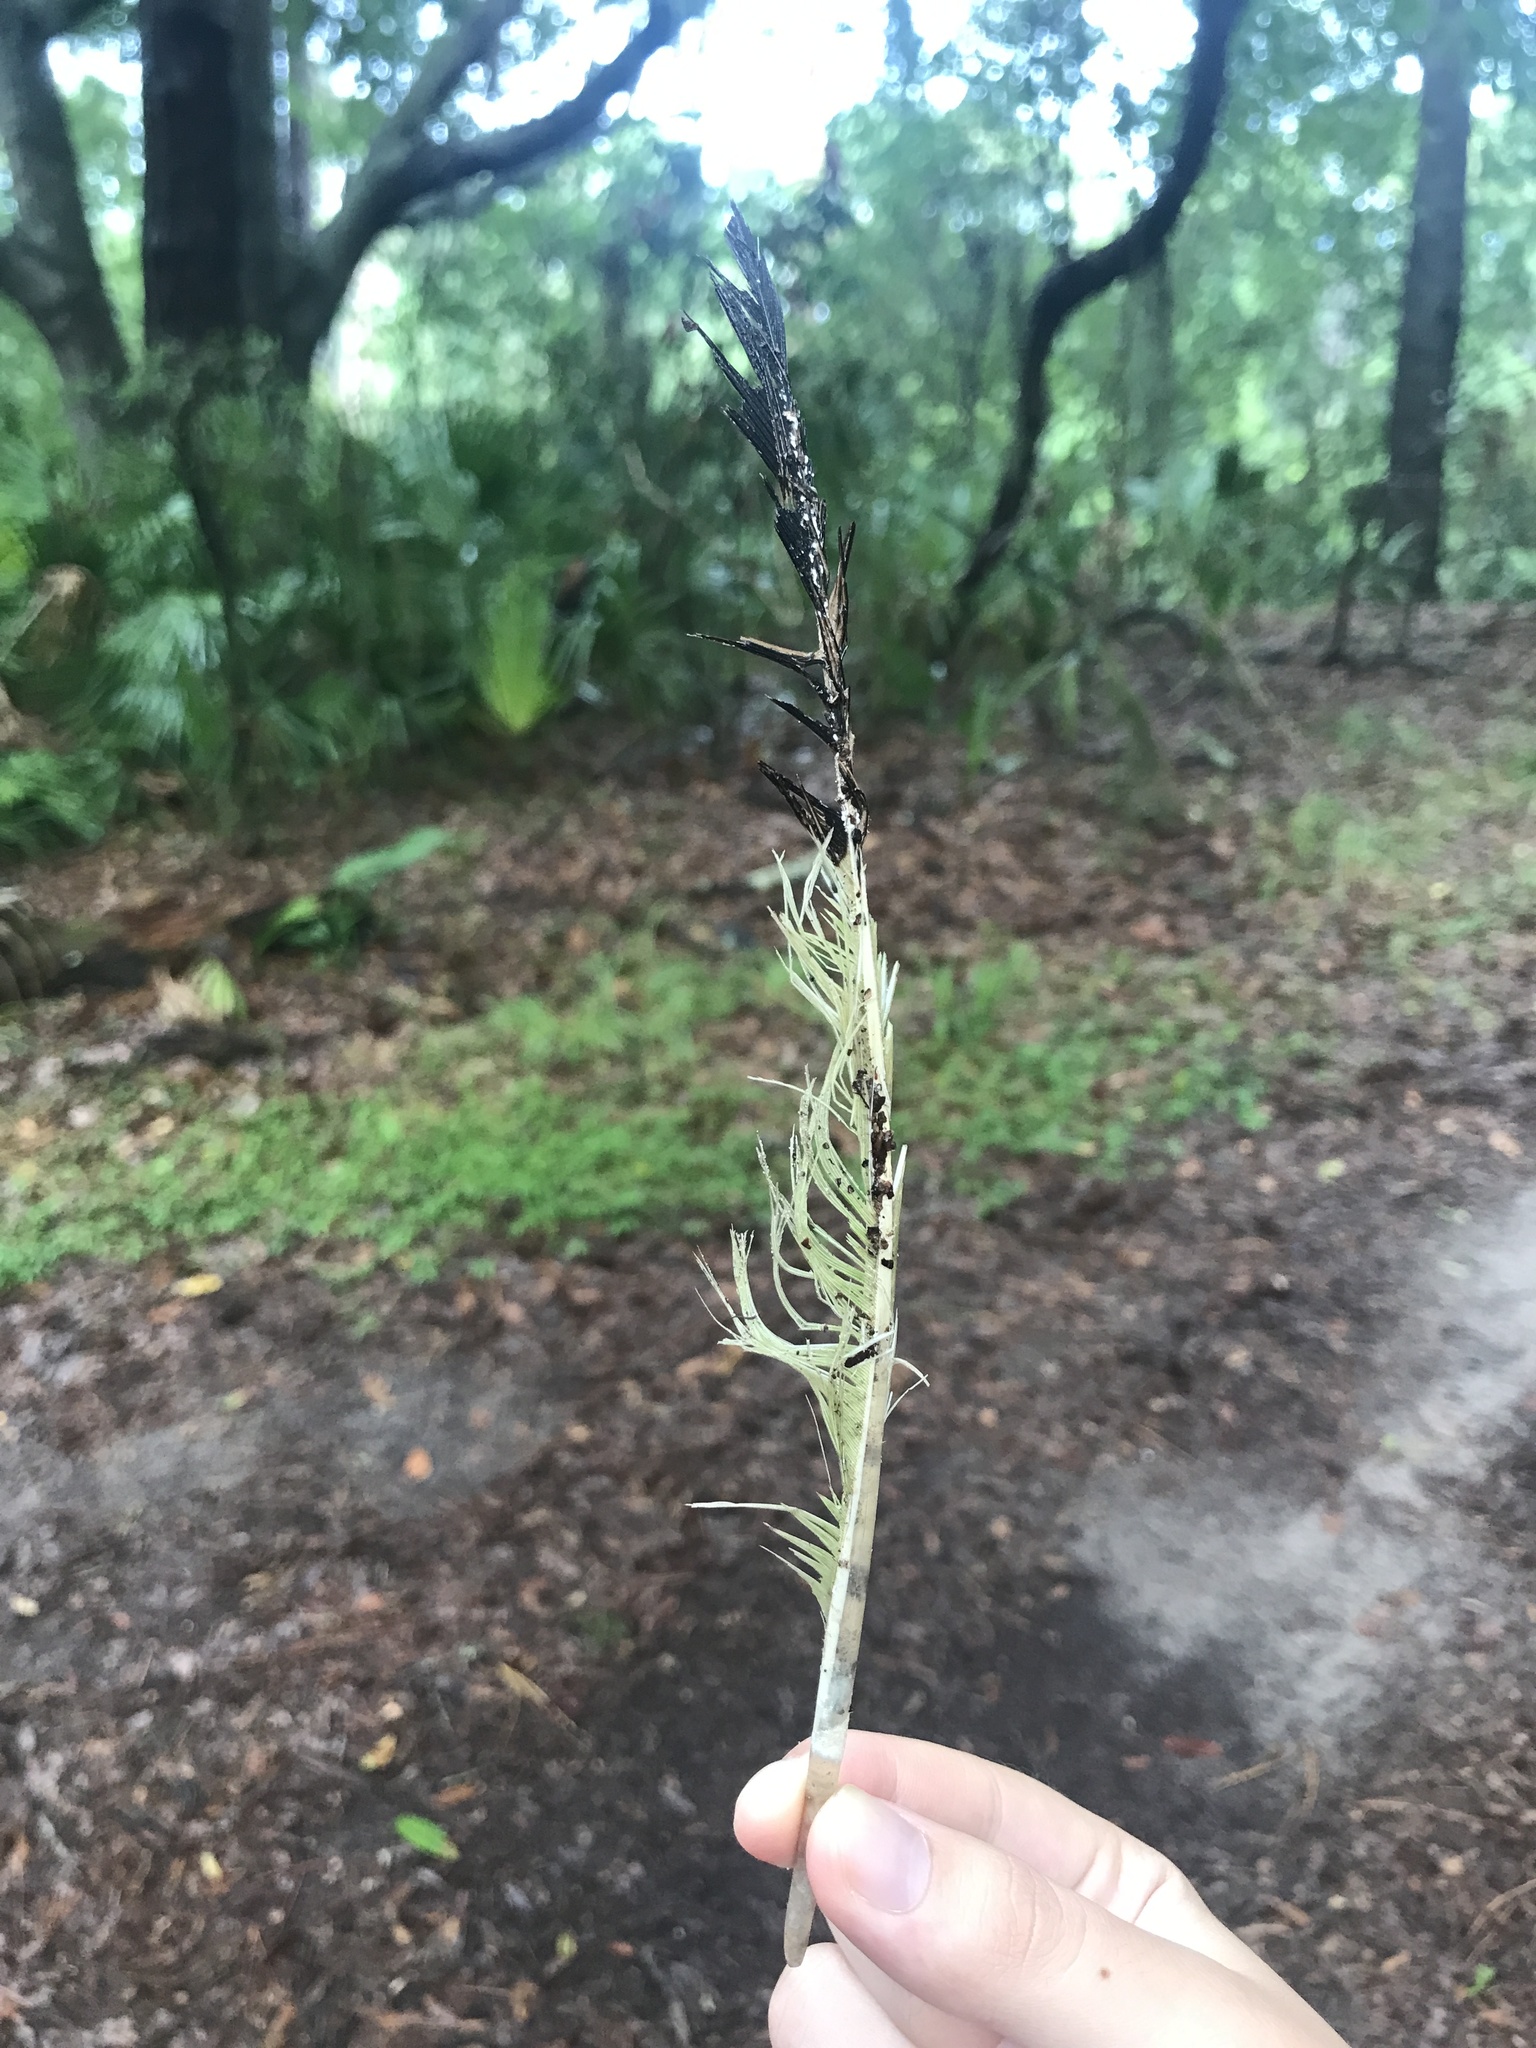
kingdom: Animalia
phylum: Chordata
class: Aves
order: Pelecaniformes
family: Threskiornithidae
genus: Eudocimus
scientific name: Eudocimus albus
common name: White ibis
